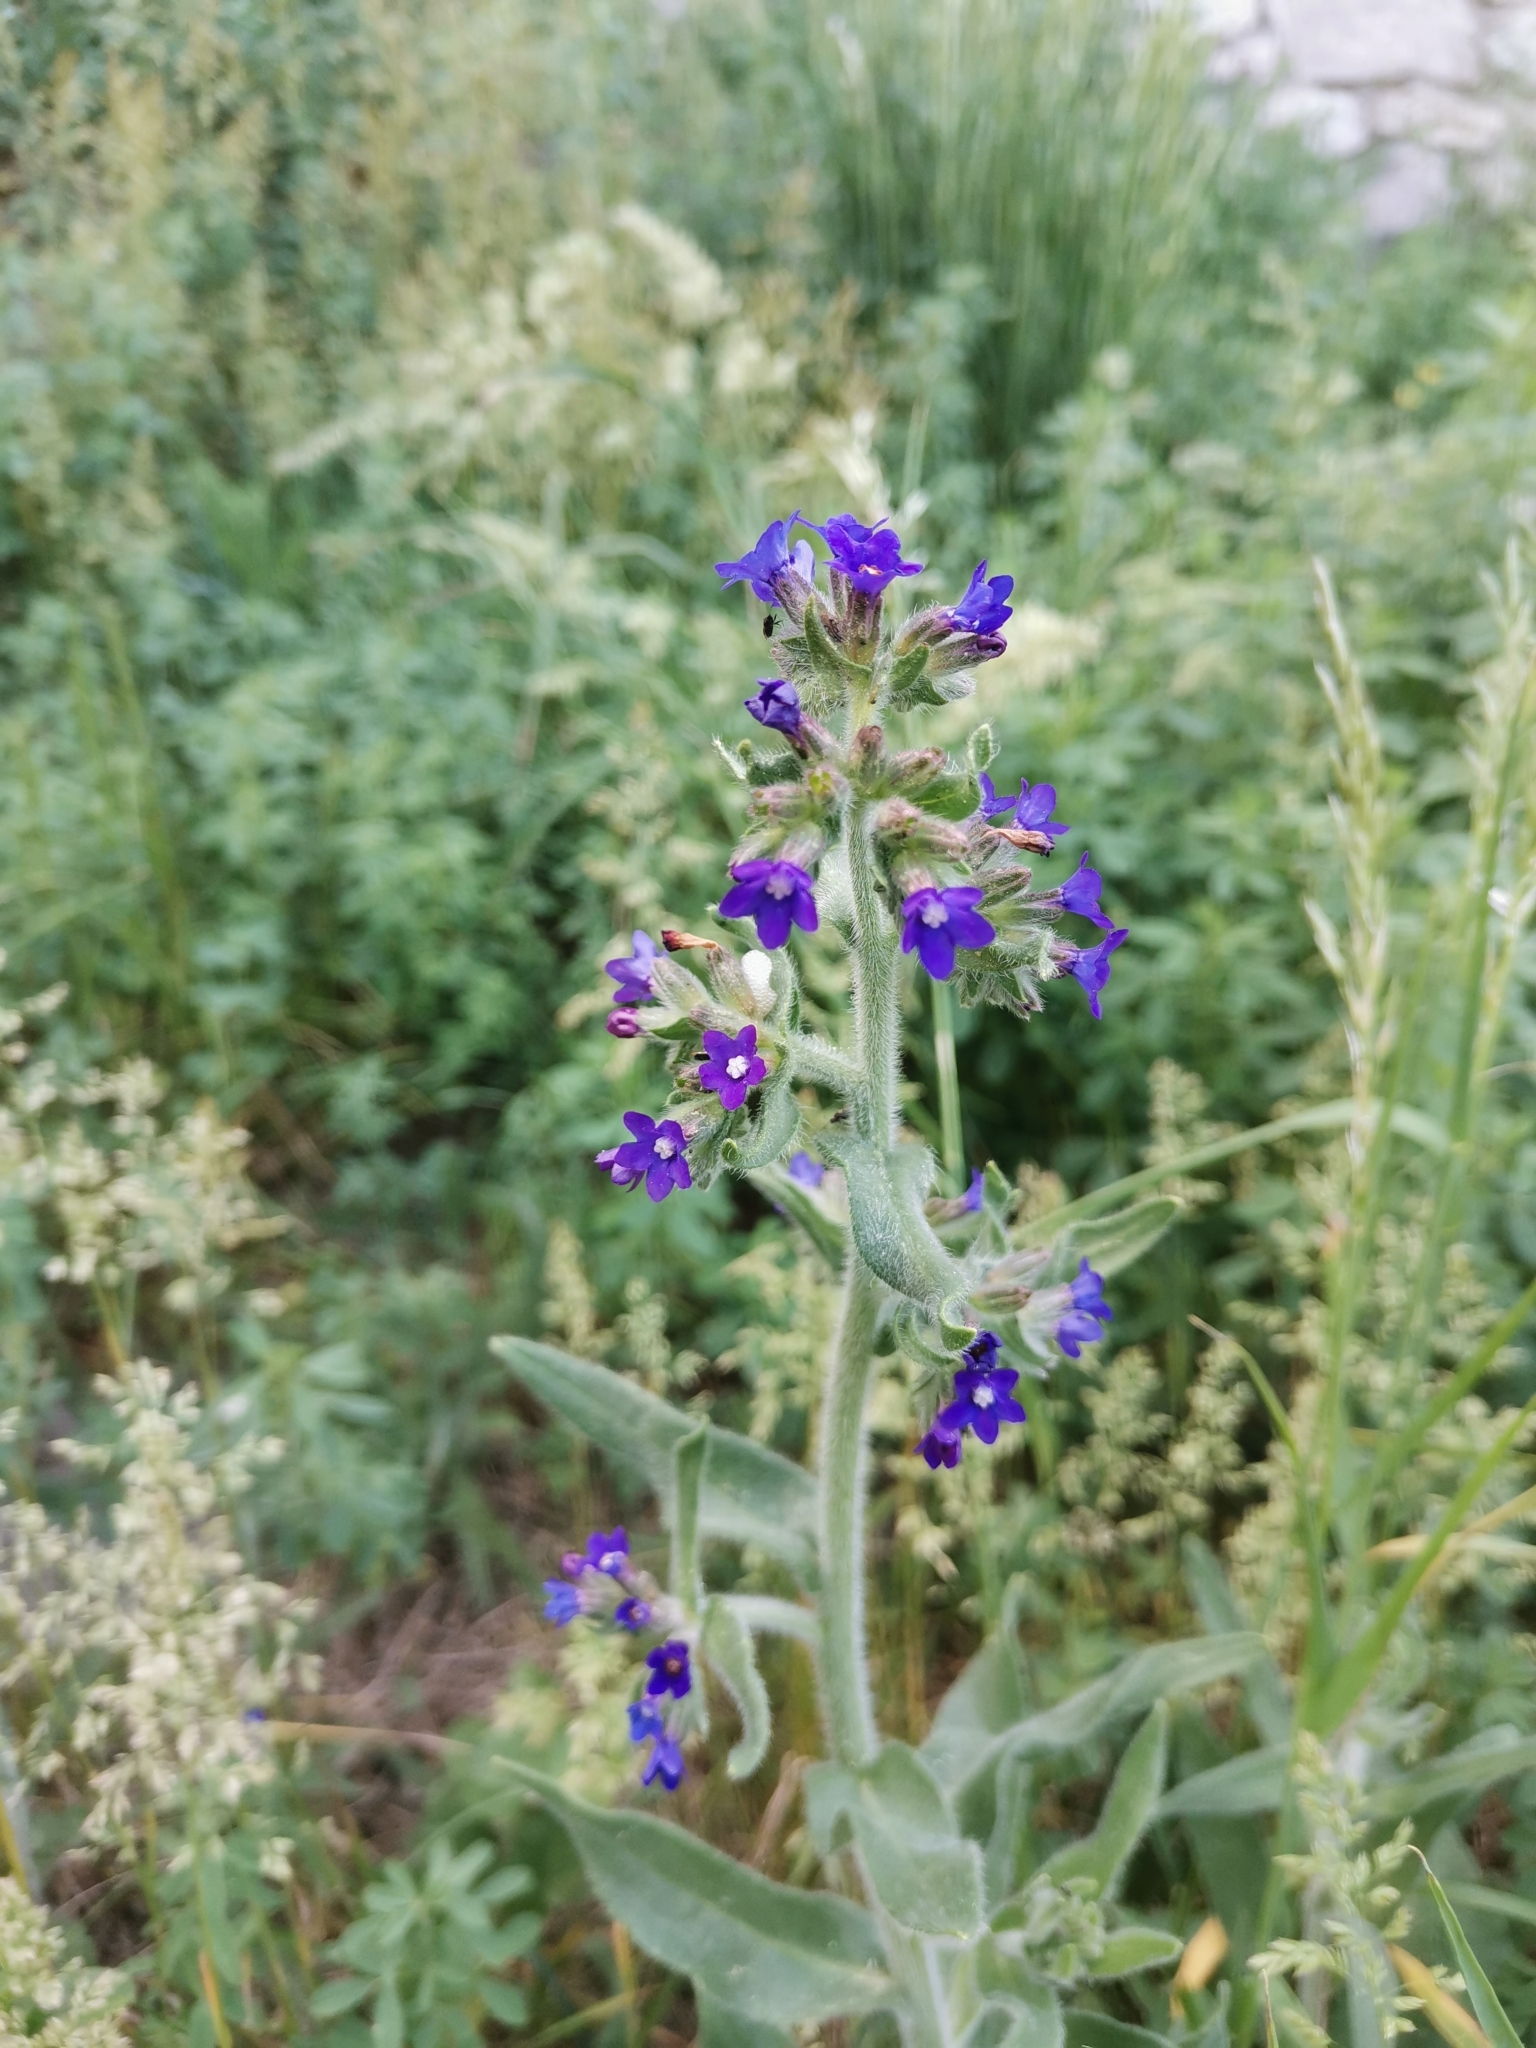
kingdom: Plantae
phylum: Tracheophyta
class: Magnoliopsida
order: Boraginales
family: Boraginaceae
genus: Anchusa
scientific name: Anchusa officinalis
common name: Alkanet
